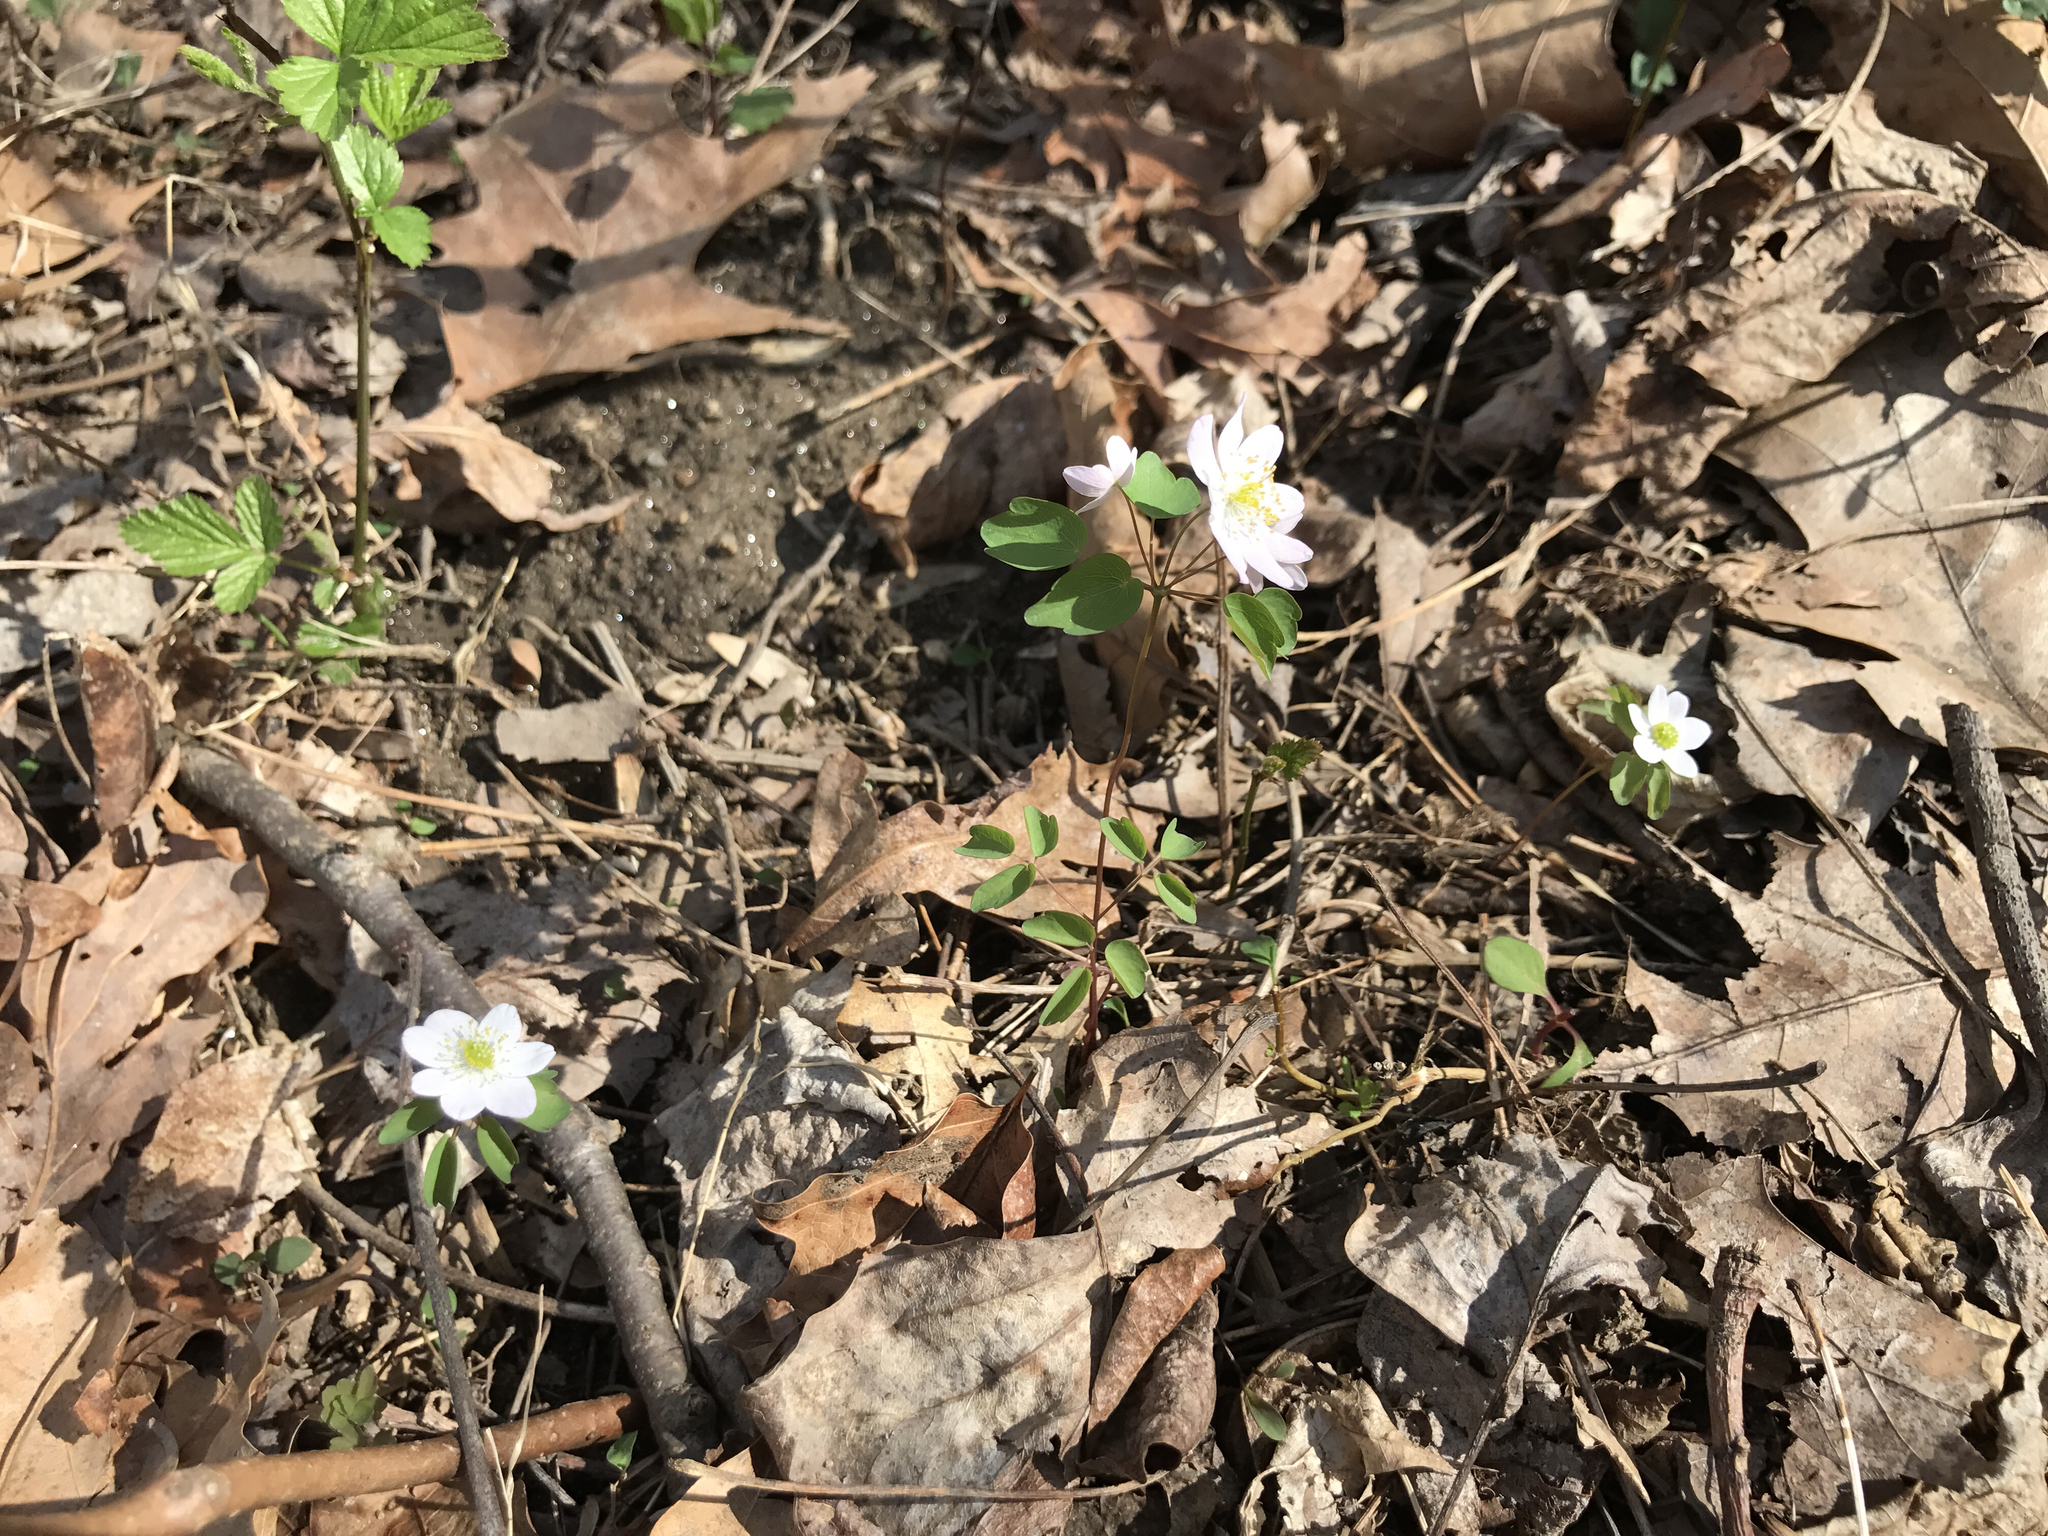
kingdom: Plantae
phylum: Tracheophyta
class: Magnoliopsida
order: Ranunculales
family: Ranunculaceae
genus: Thalictrum
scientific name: Thalictrum thalictroides
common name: Rue-anemone
